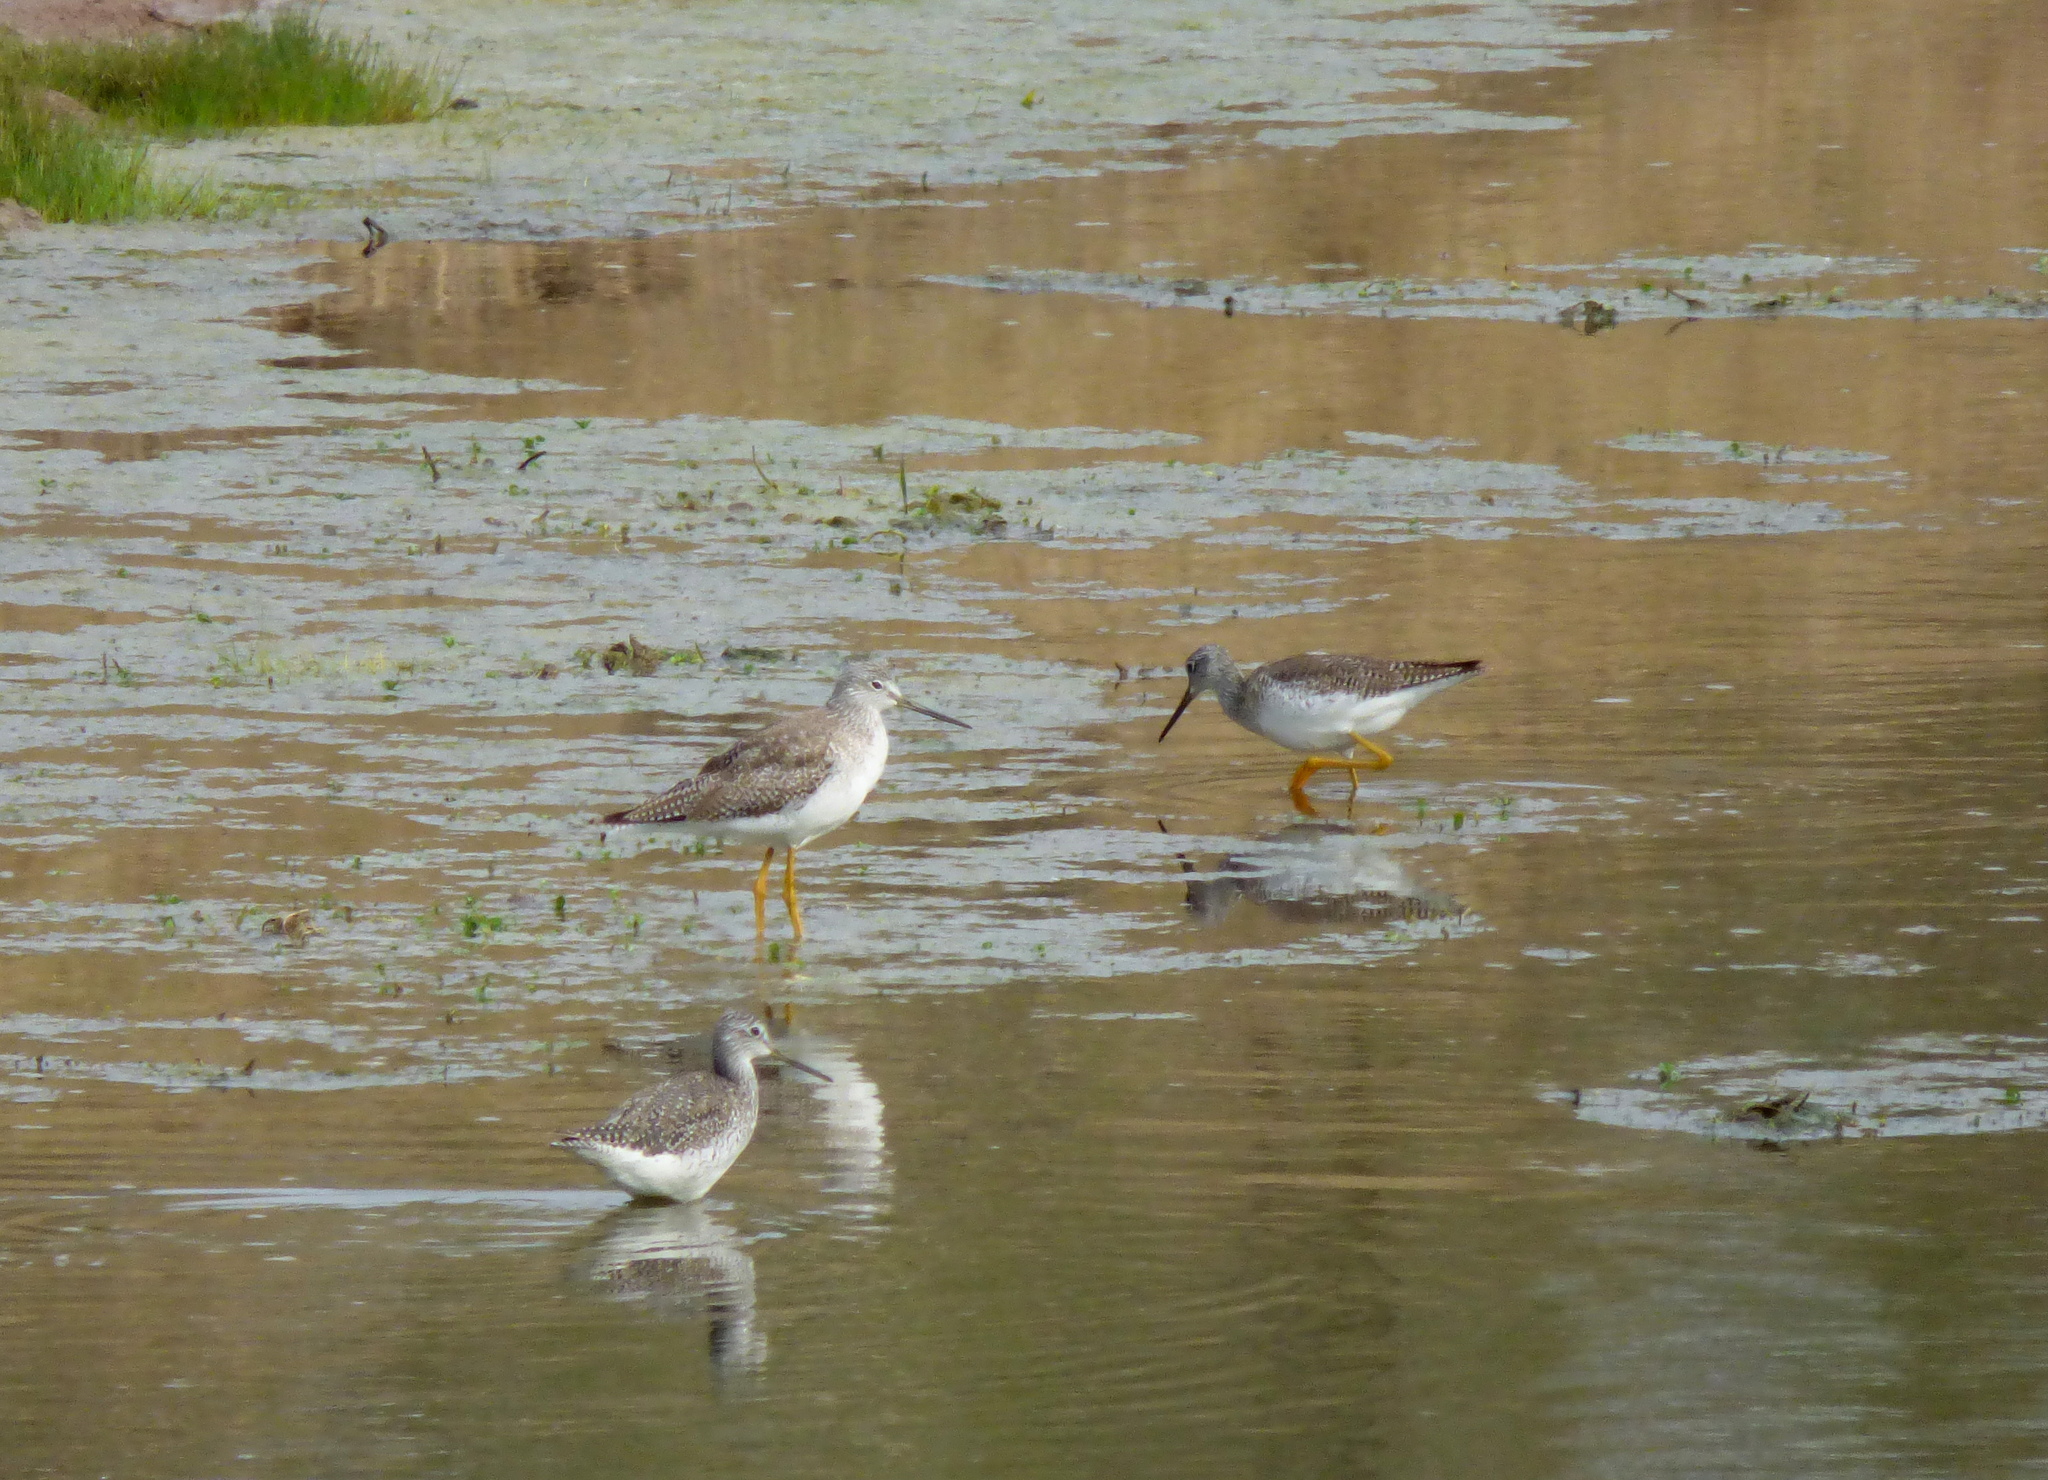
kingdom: Animalia
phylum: Chordata
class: Aves
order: Charadriiformes
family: Scolopacidae
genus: Tringa
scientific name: Tringa flavipes
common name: Lesser yellowlegs
